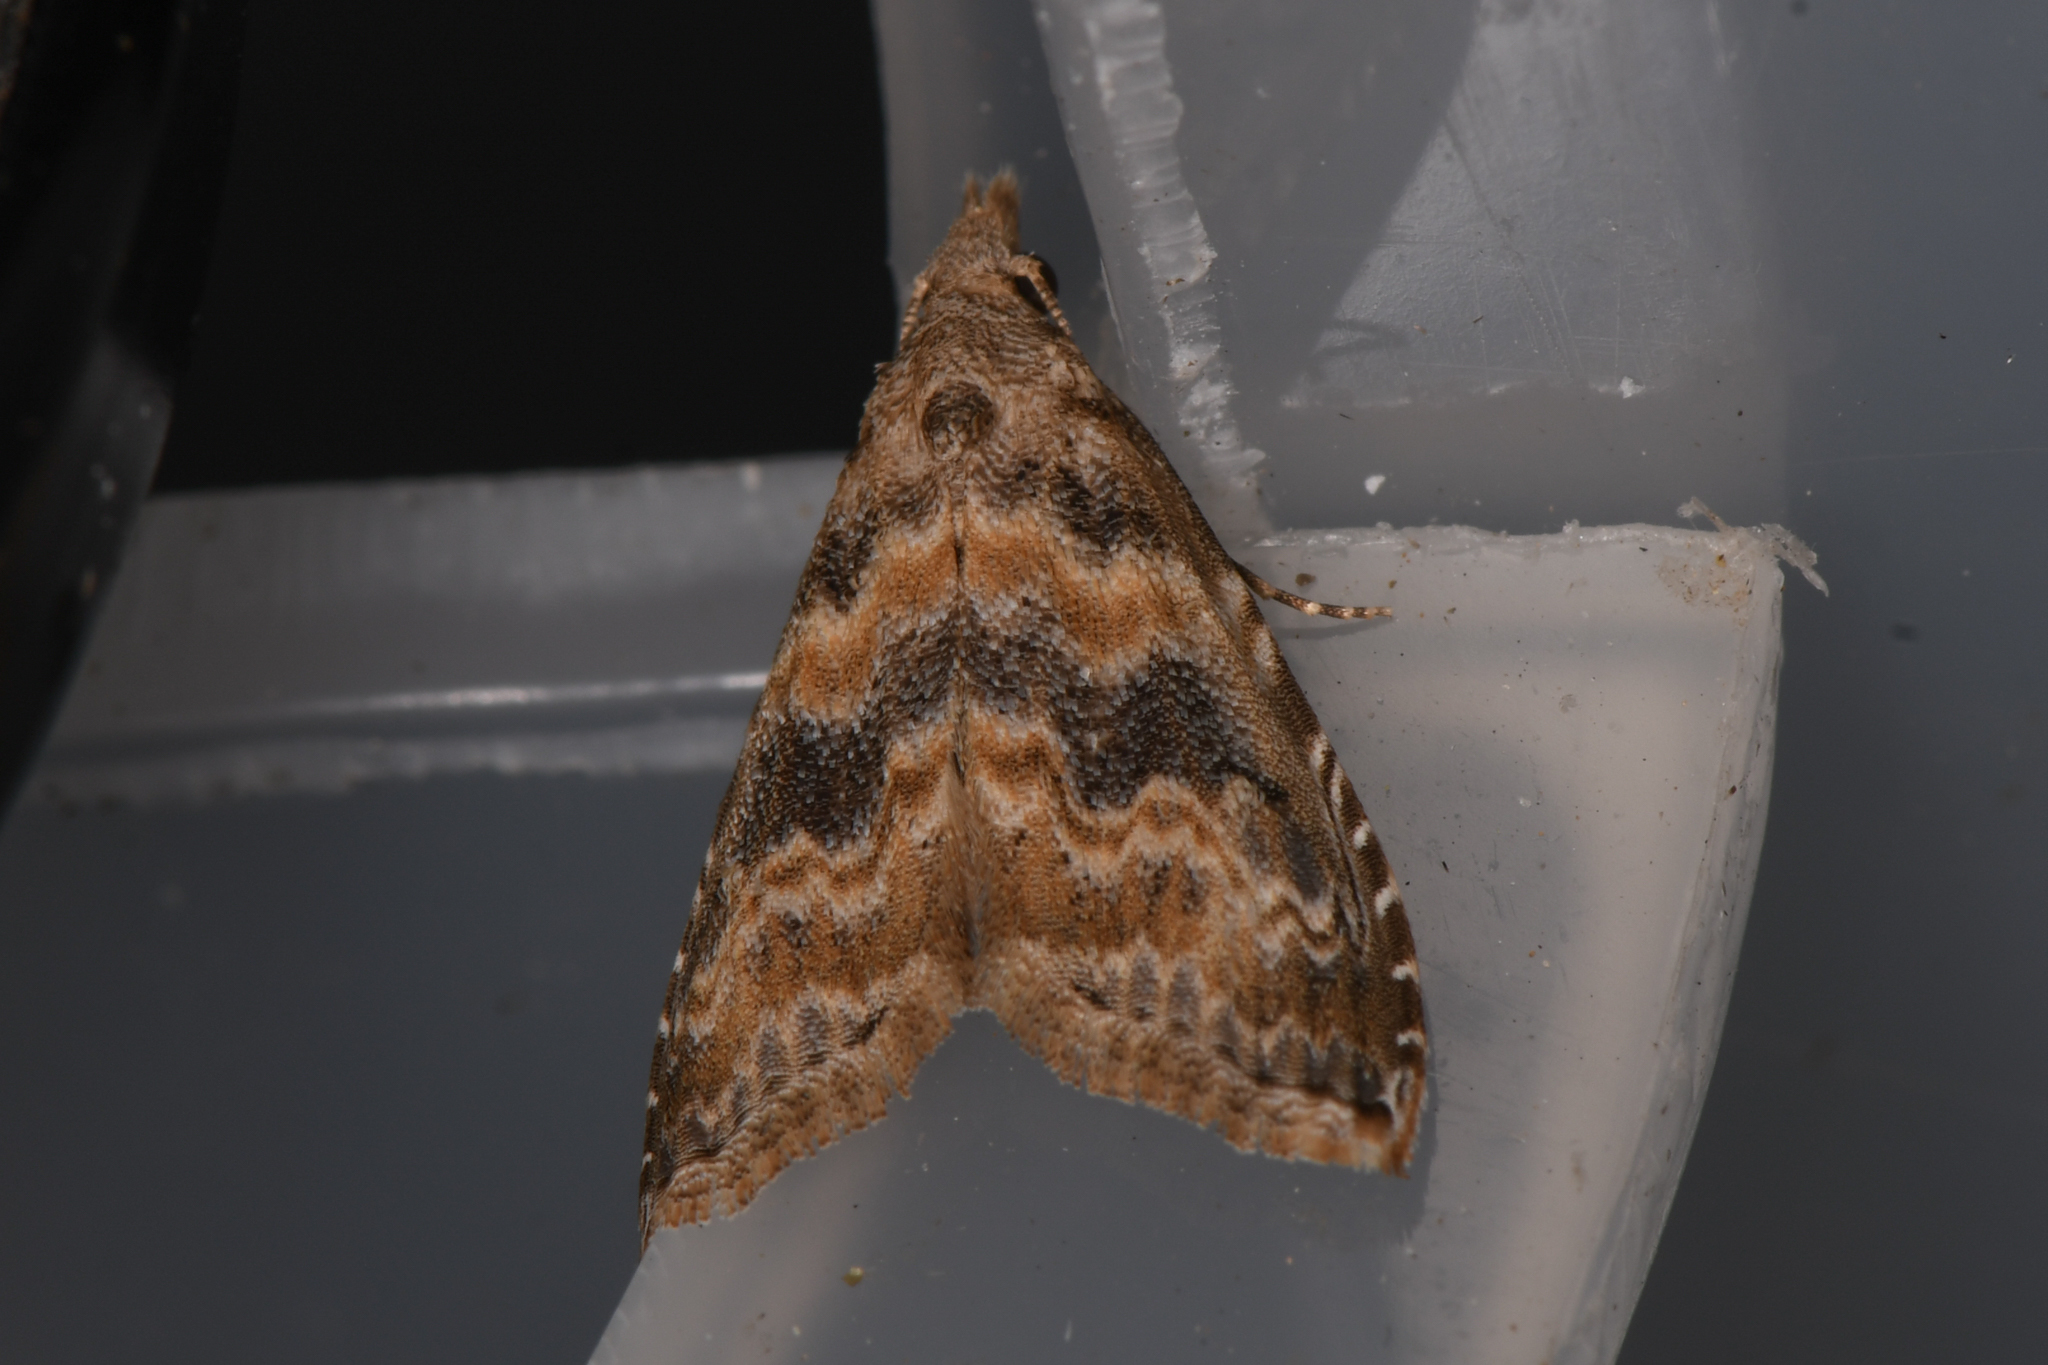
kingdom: Animalia
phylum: Arthropoda
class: Insecta
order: Lepidoptera
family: Noctuidae
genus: Phobolosia
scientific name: Phobolosia anfracta
